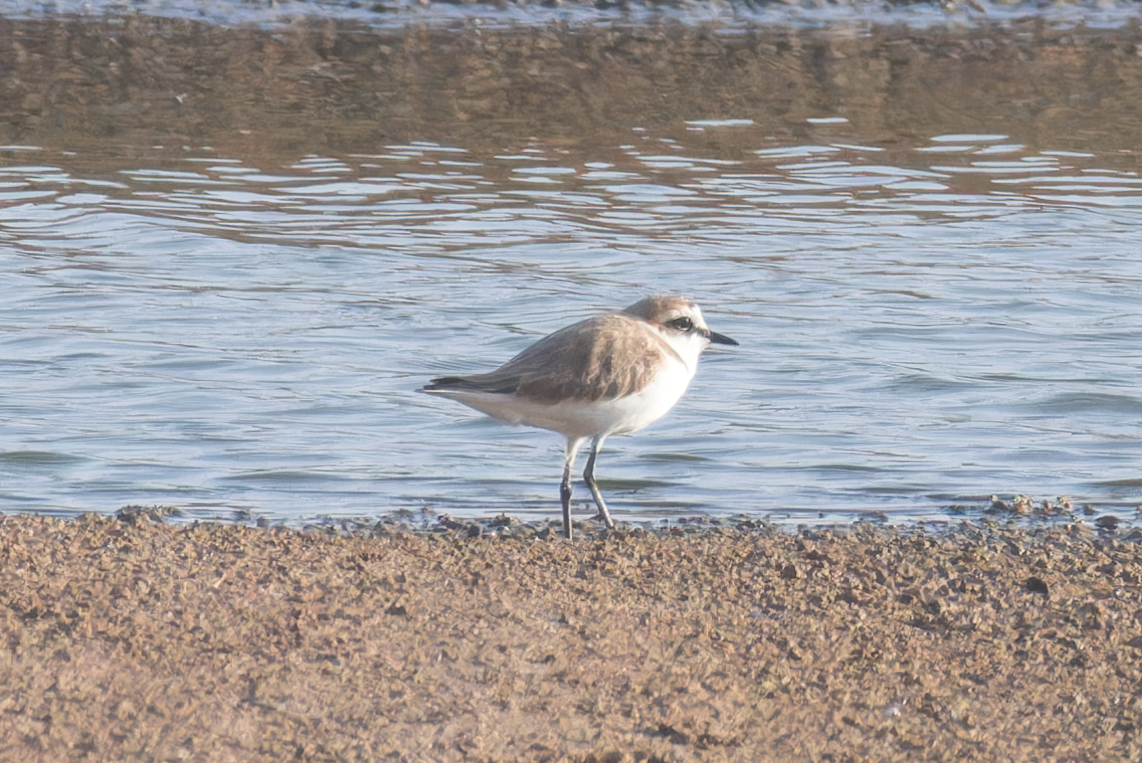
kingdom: Animalia
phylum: Chordata
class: Aves
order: Charadriiformes
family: Charadriidae
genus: Charadrius
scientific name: Charadrius alexandrinus
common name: Kentish plover
